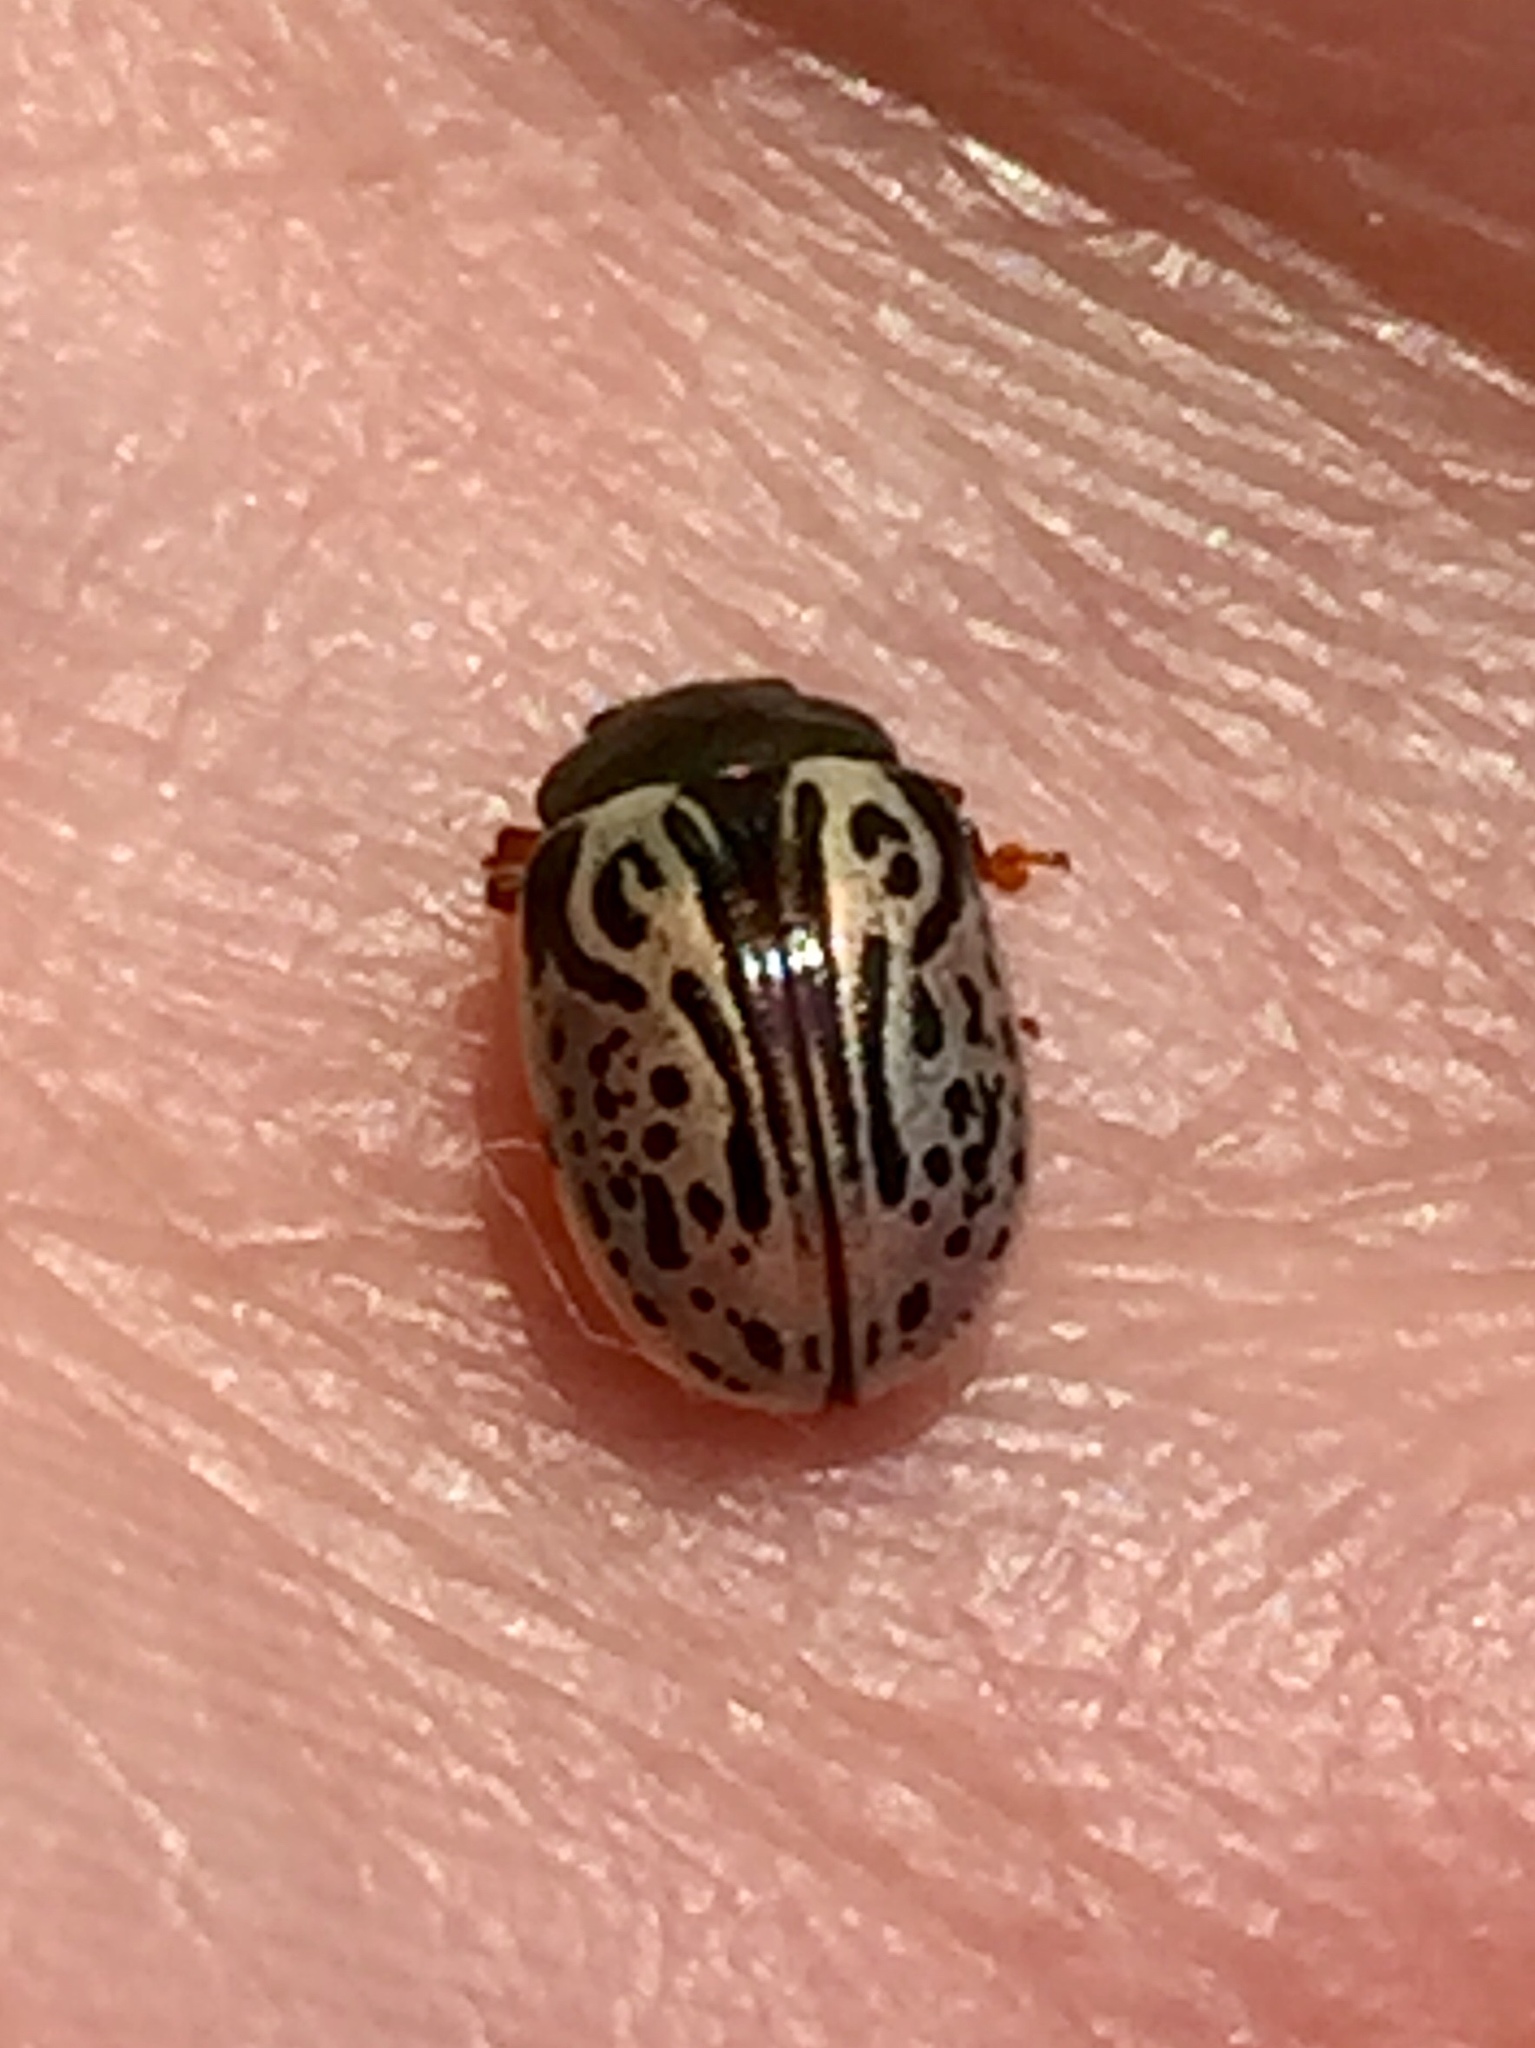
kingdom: Animalia
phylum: Arthropoda
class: Insecta
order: Coleoptera
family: Chrysomelidae
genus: Calligrapha
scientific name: Calligrapha philadelphica
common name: Dogwood leaf beetle
